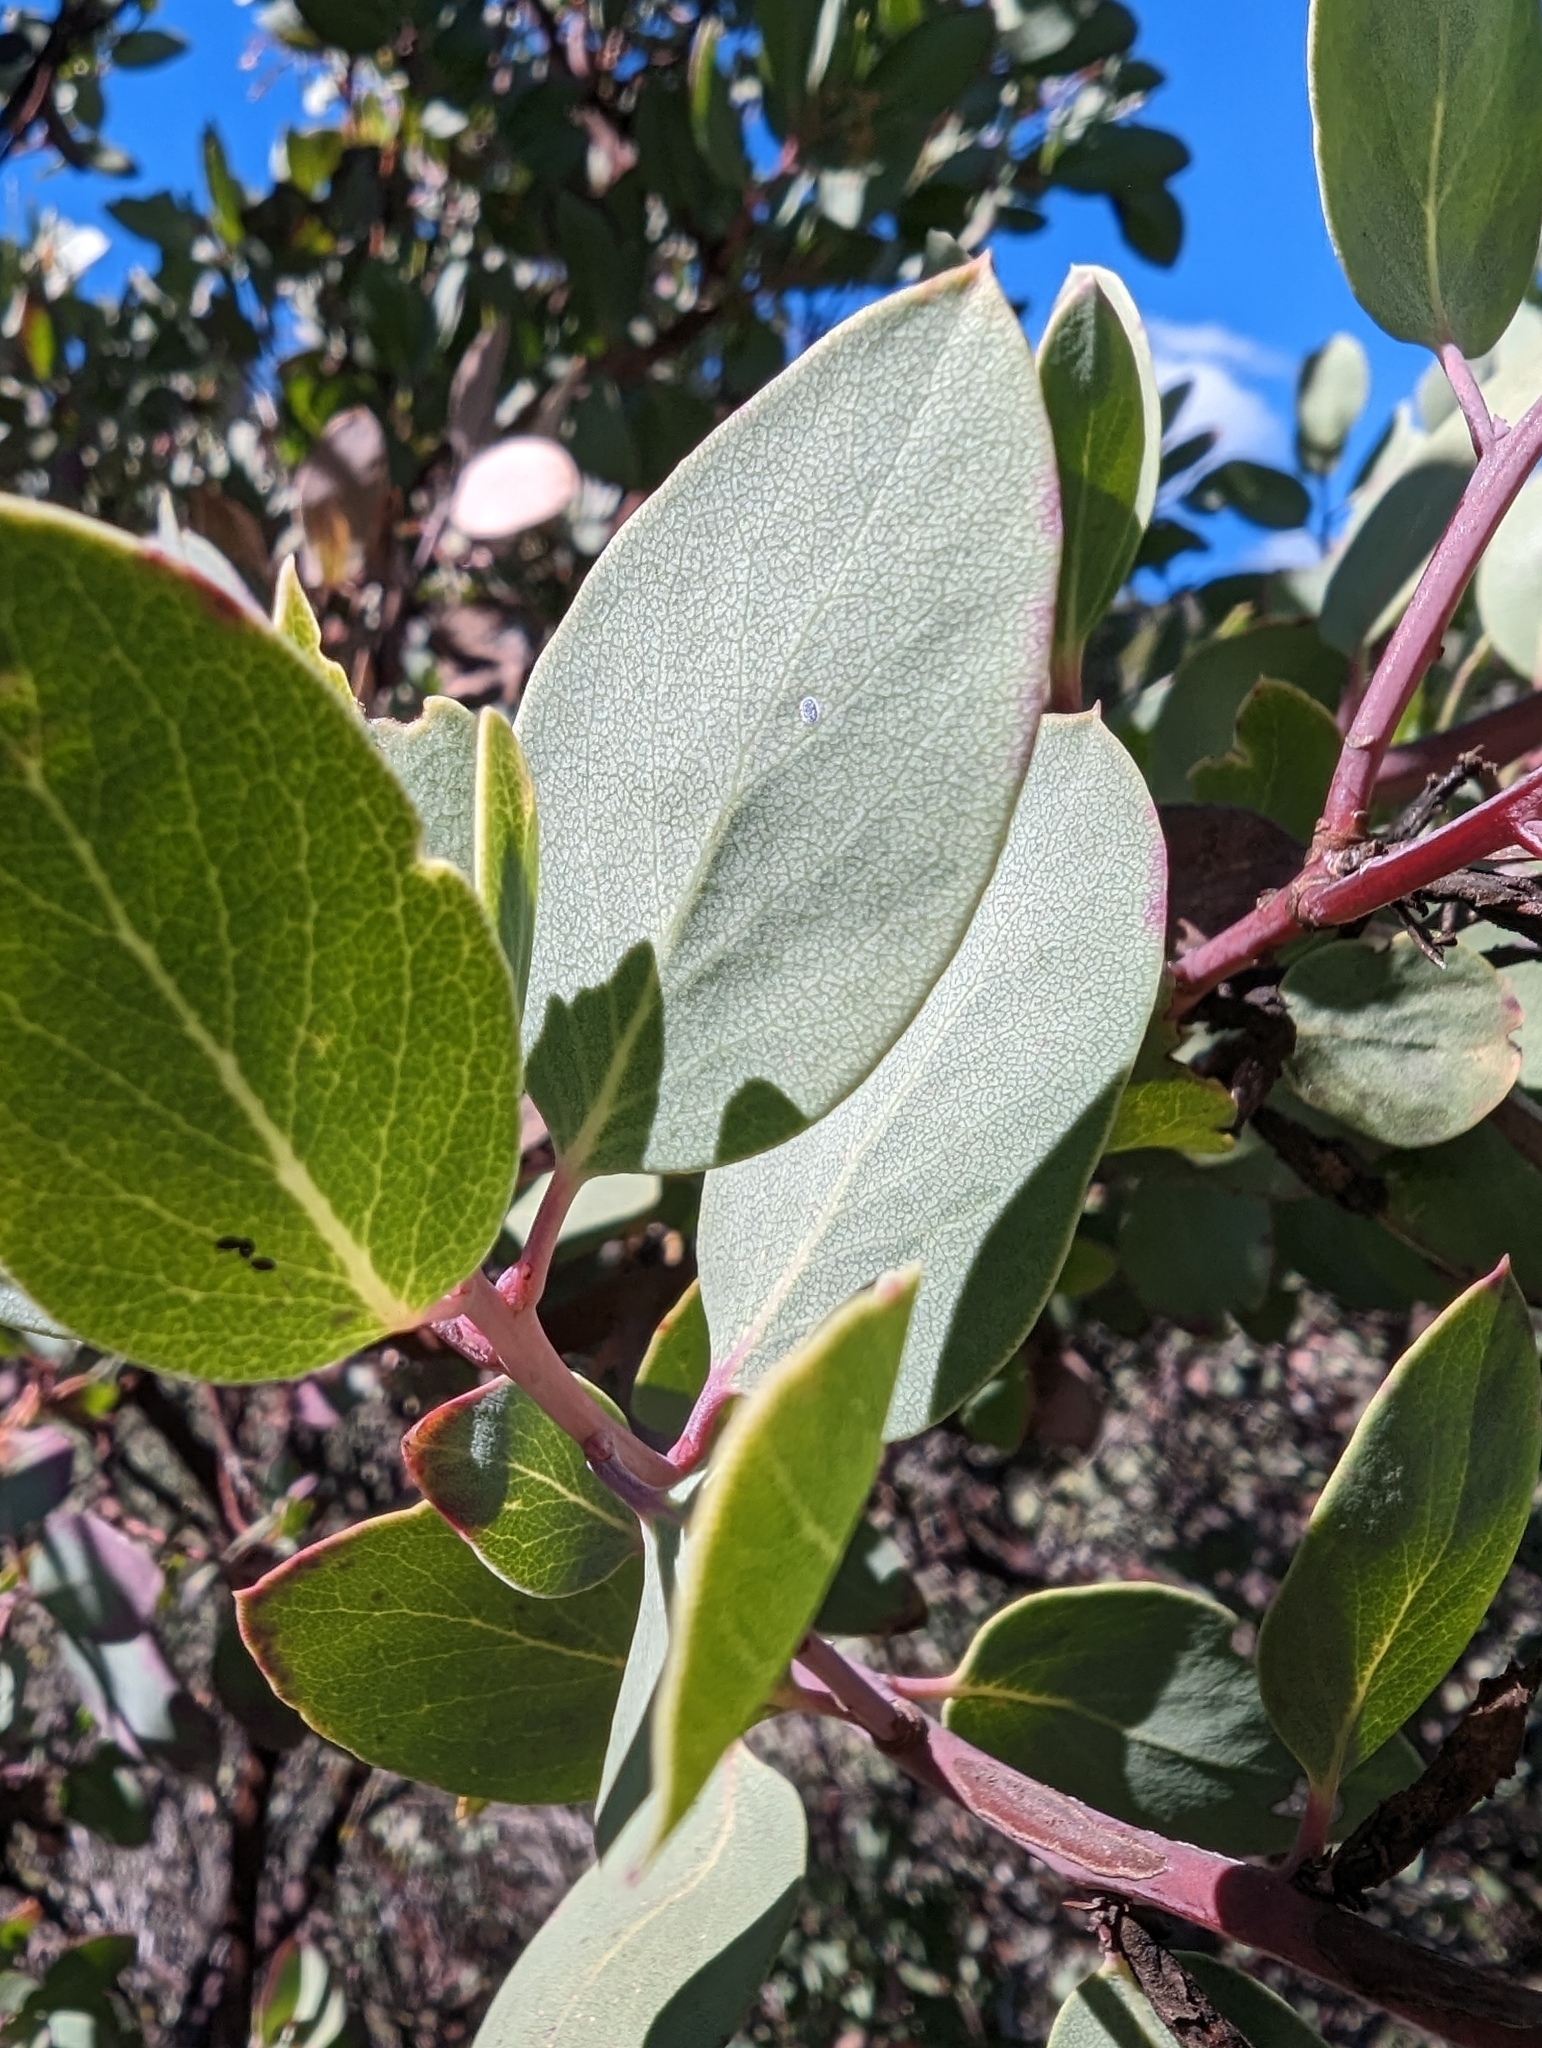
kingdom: Plantae
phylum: Tracheophyta
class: Magnoliopsida
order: Ericales
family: Ericaceae
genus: Arctostaphylos
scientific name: Arctostaphylos glauca
